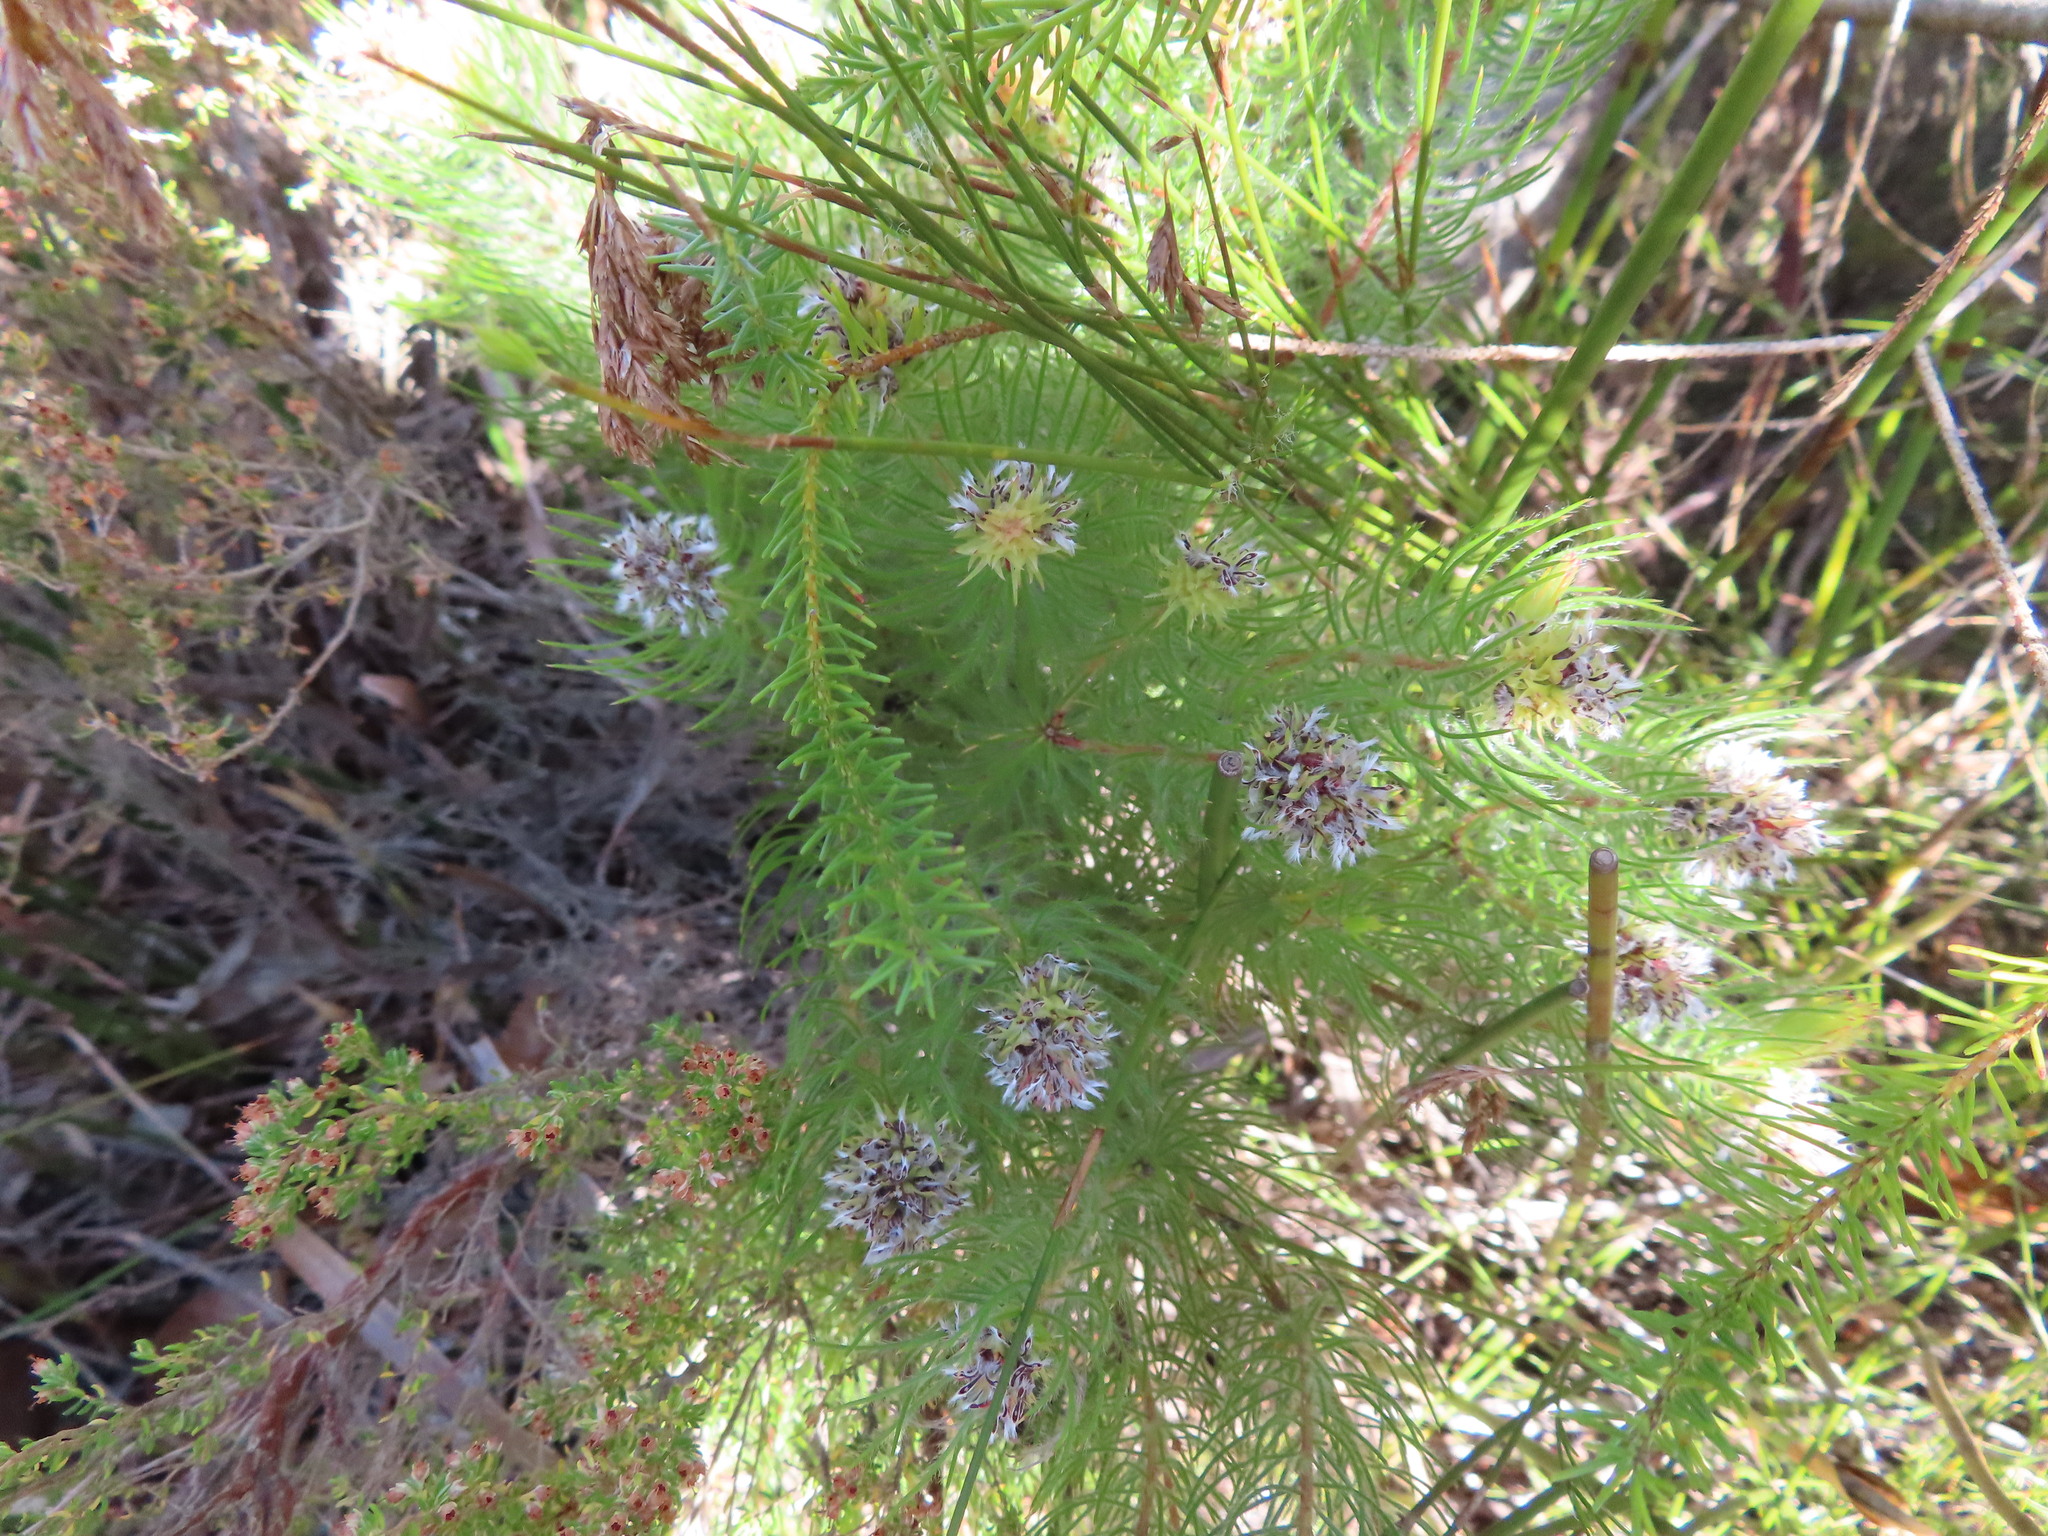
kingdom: Plantae
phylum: Tracheophyta
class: Magnoliopsida
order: Proteales
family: Proteaceae
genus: Spatalla
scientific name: Spatalla setacea
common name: Needle-leaf spoon
